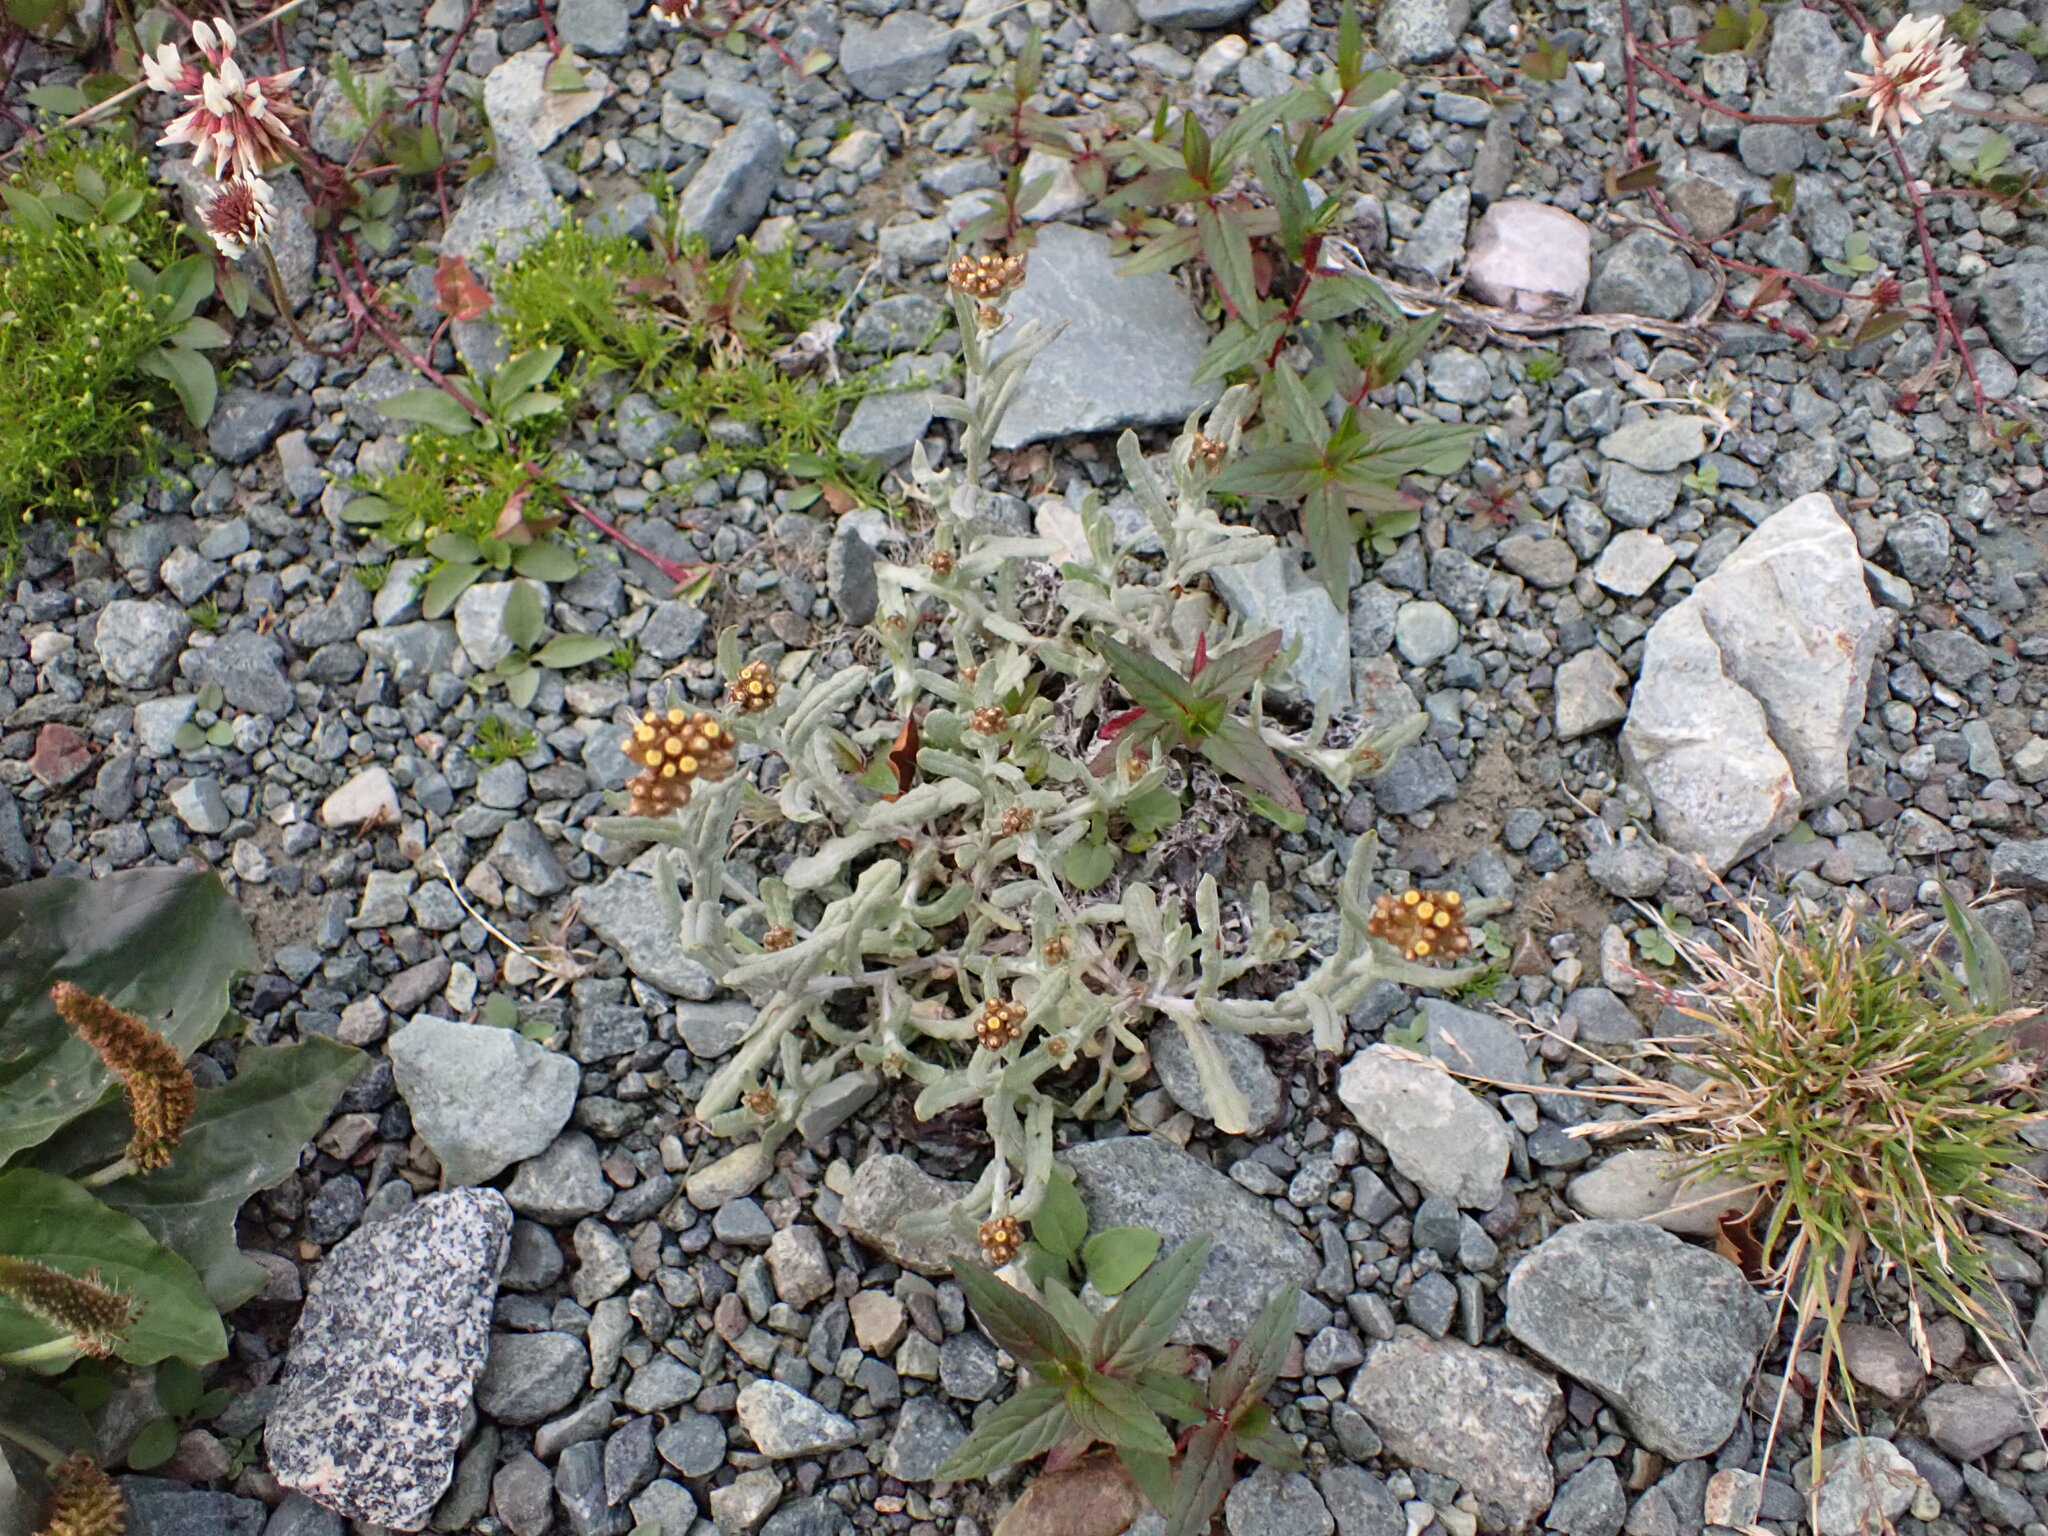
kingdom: Plantae
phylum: Tracheophyta
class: Magnoliopsida
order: Asterales
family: Asteraceae
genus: Pseudognaphalium
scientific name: Pseudognaphalium
